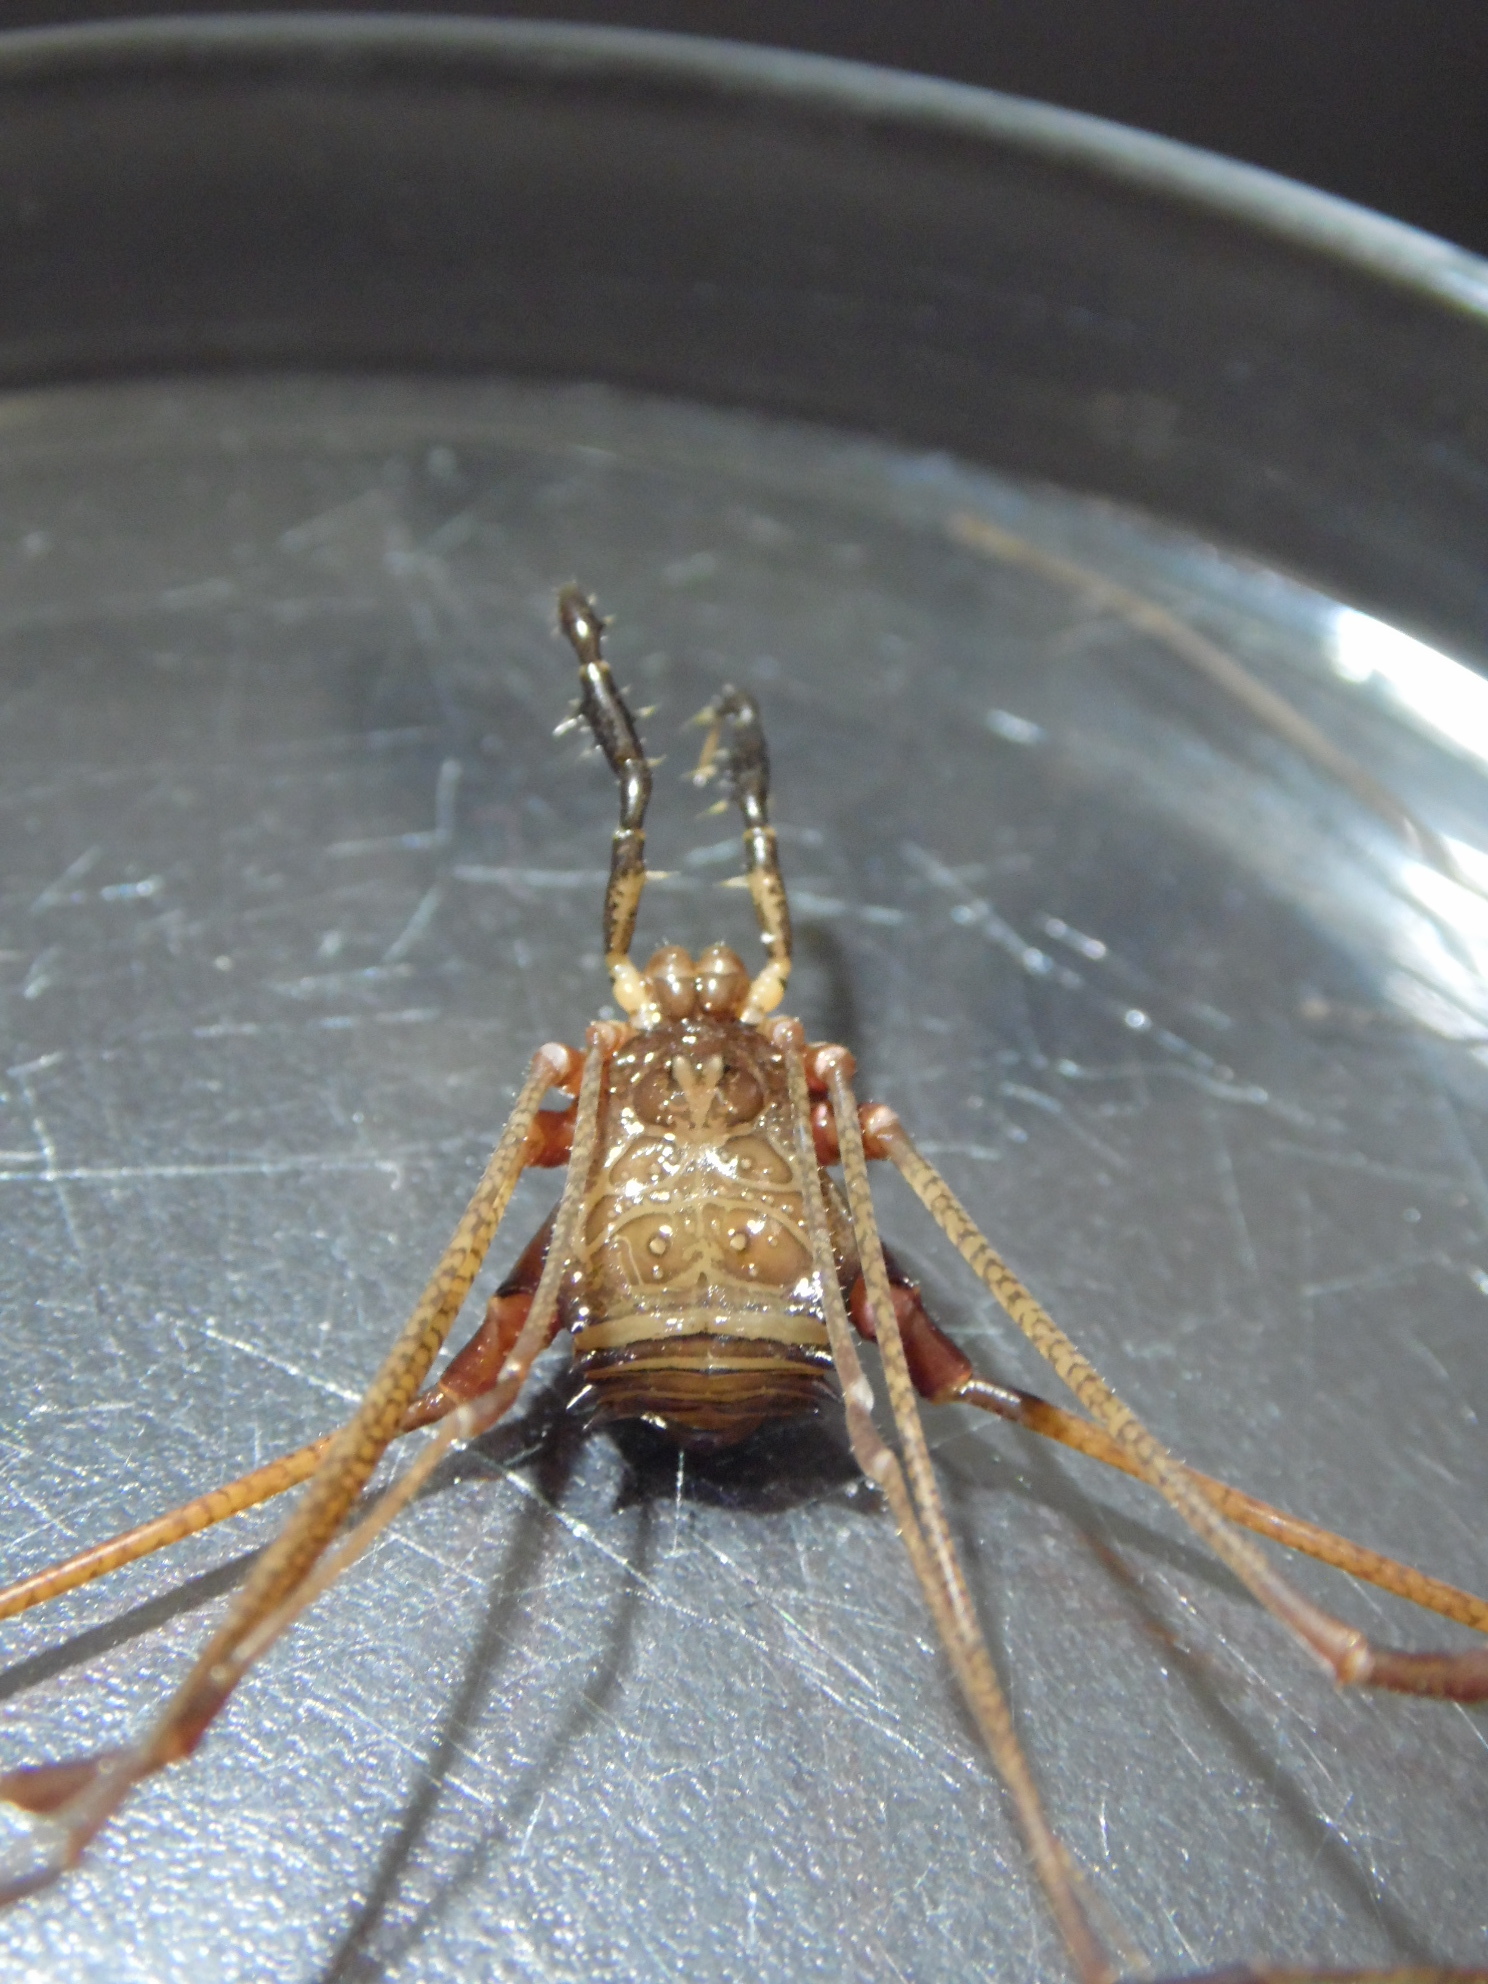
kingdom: Animalia
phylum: Arthropoda
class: Arachnida
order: Opiliones
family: Gonyleptidae
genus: Serracutisoma
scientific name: Serracutisoma catarina
